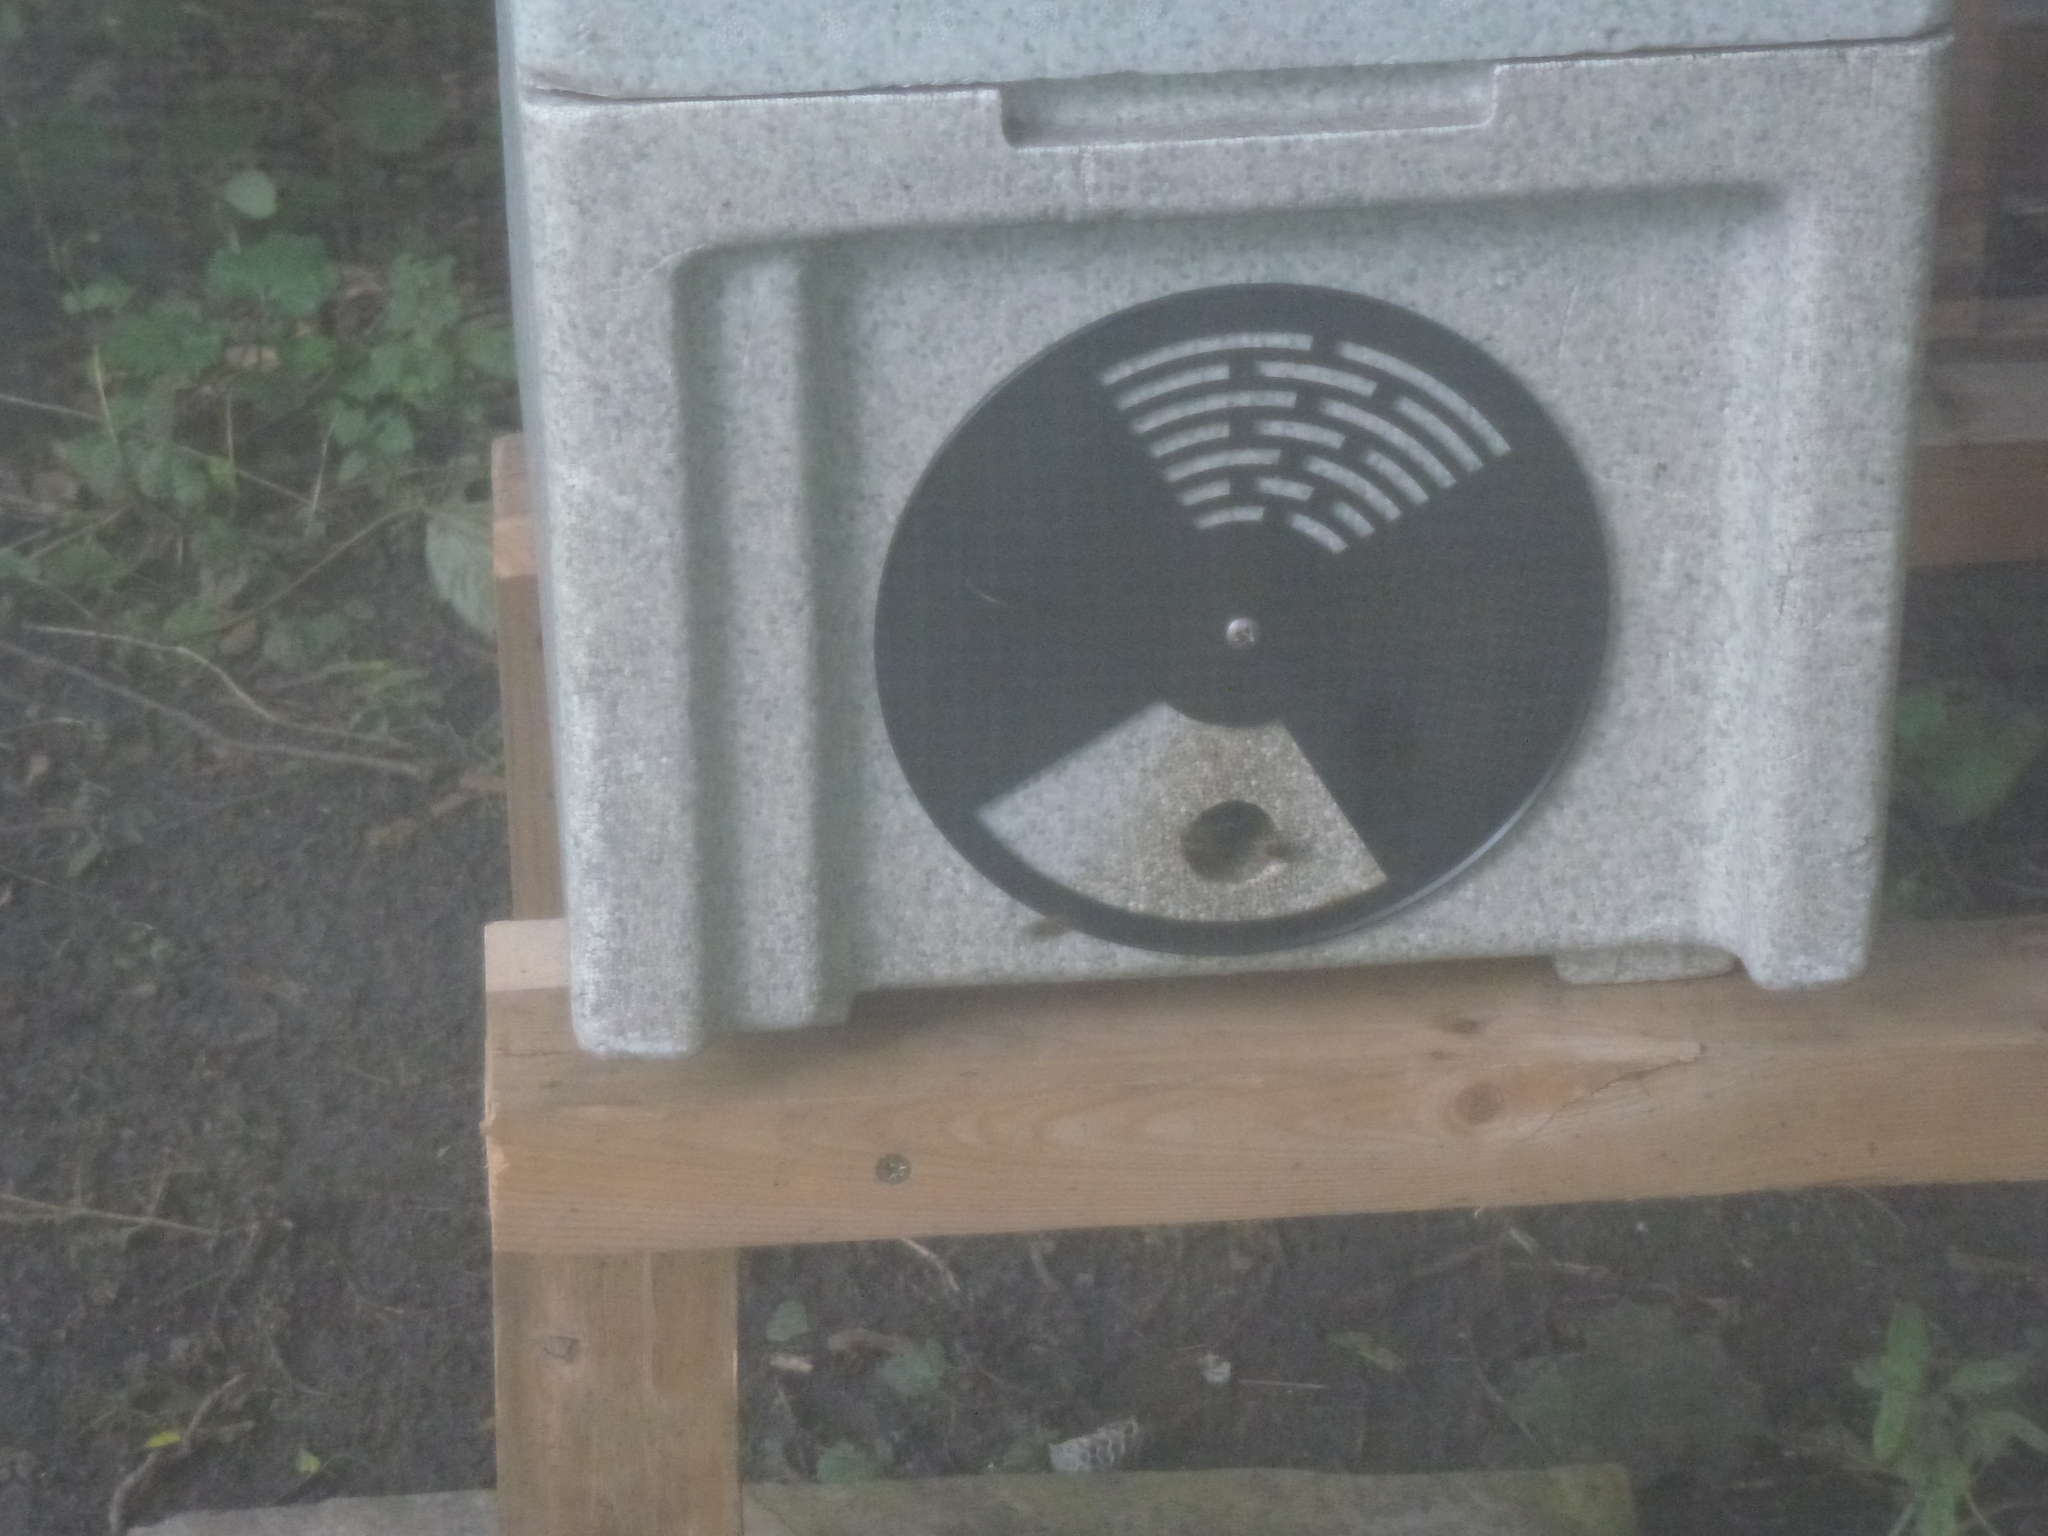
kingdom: Animalia
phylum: Arthropoda
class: Insecta
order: Hymenoptera
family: Apidae
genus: Apis
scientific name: Apis mellifera
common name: Honey bee
